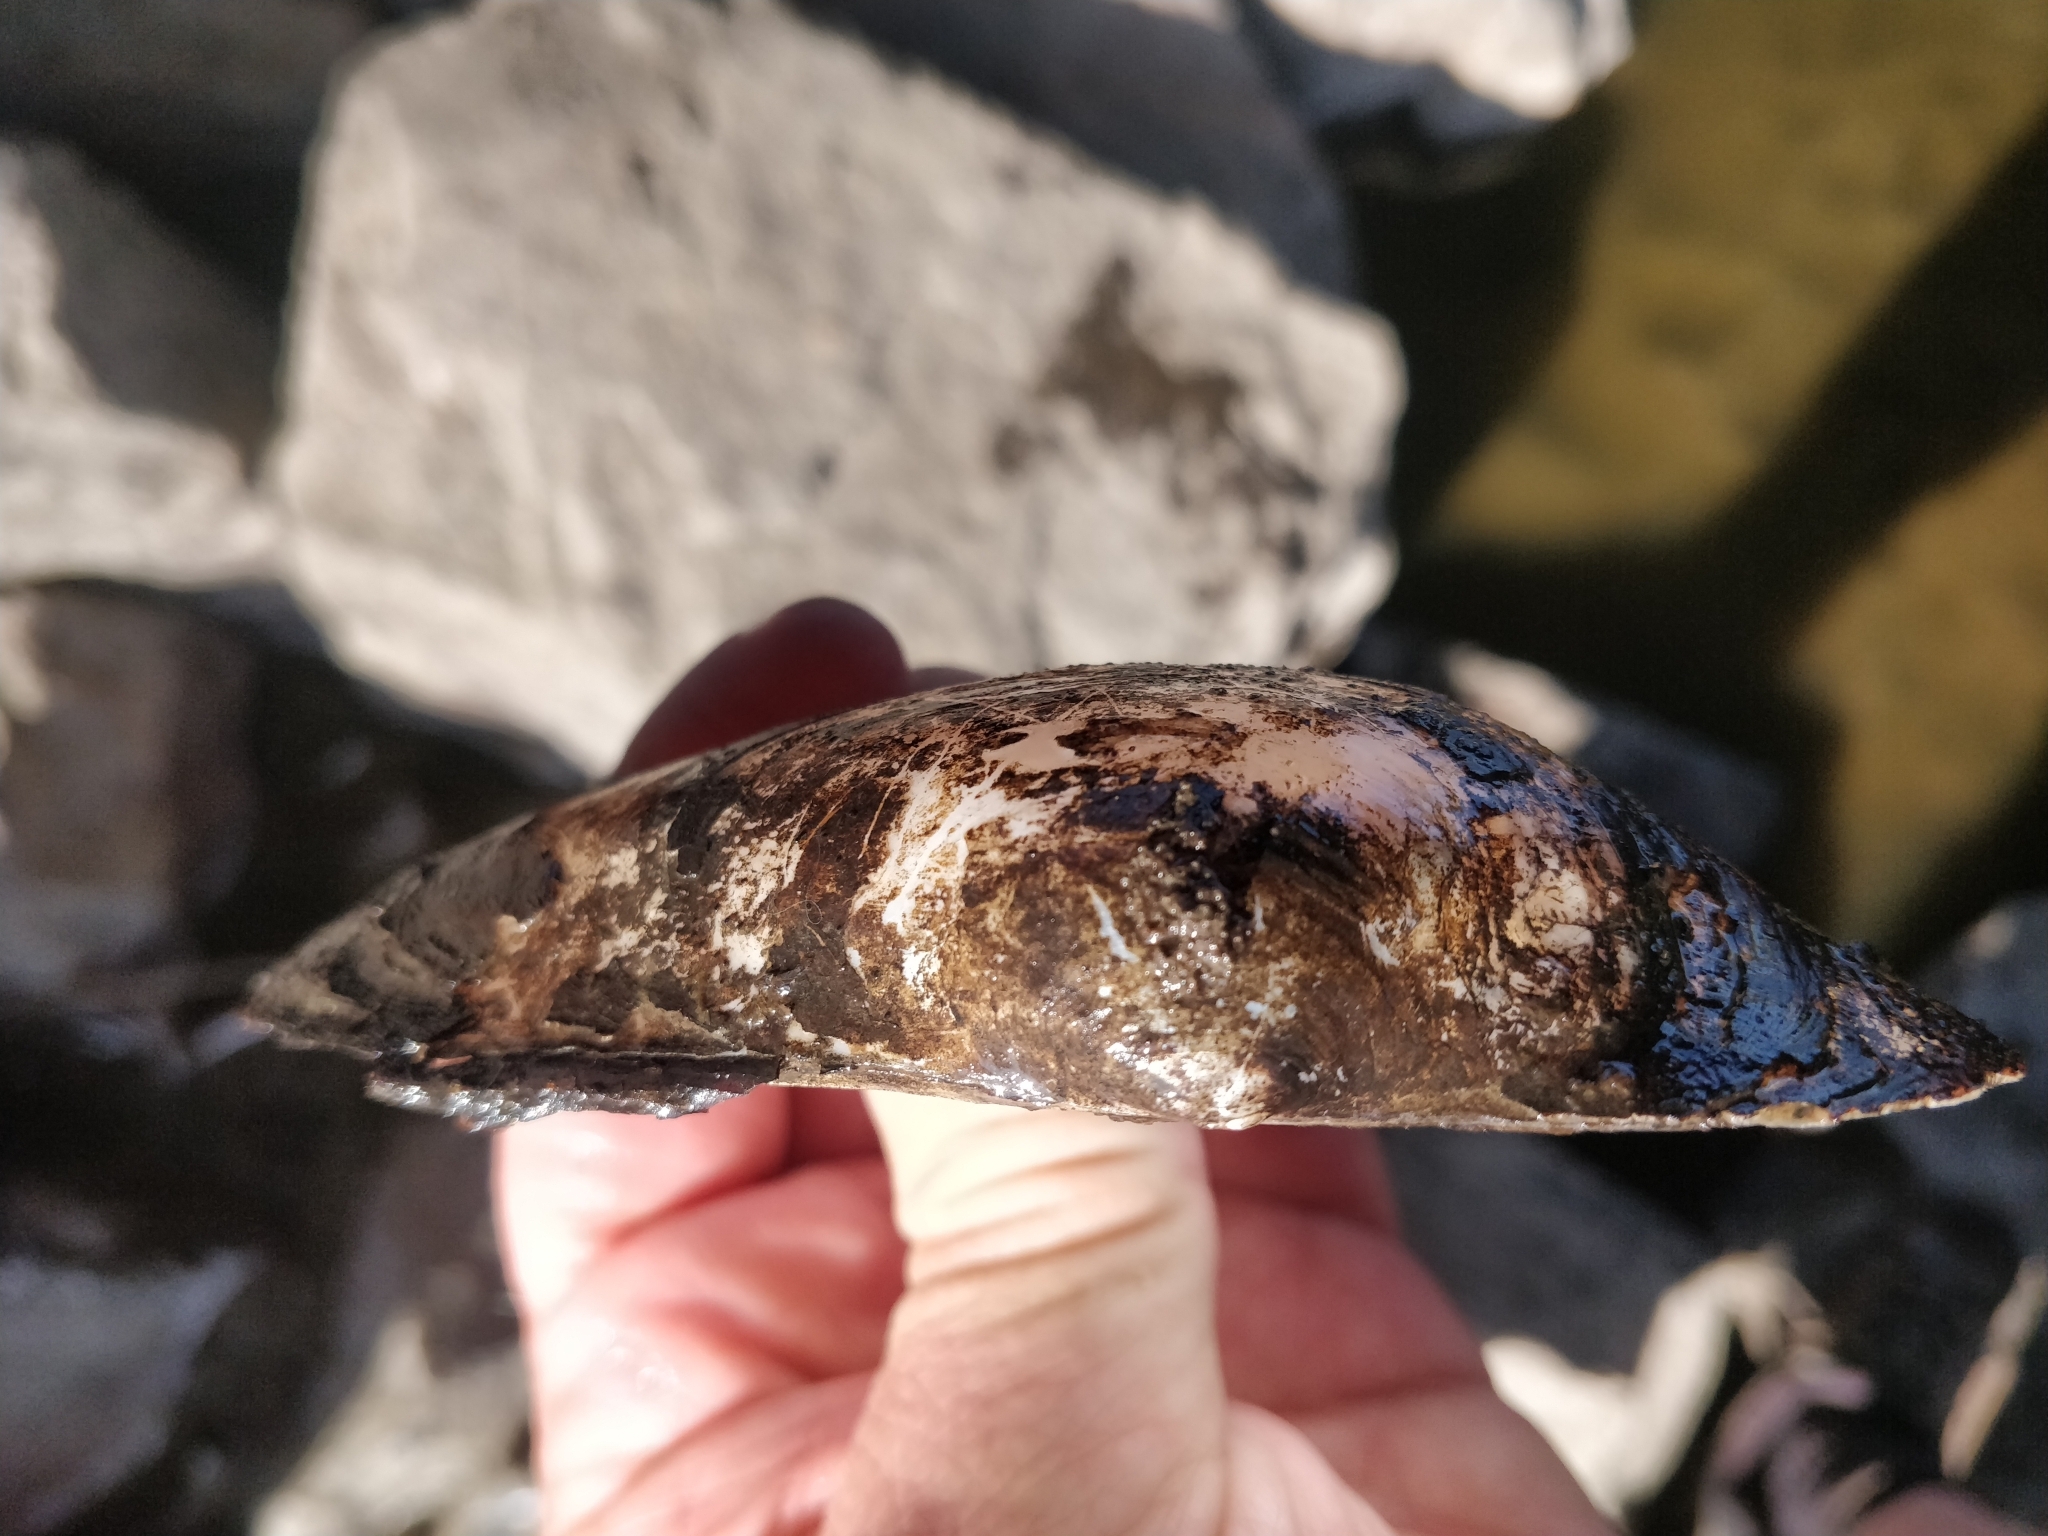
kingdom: Animalia
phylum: Mollusca
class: Bivalvia
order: Unionida
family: Unionidae
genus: Pyganodon
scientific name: Pyganodon grandis
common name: Giant floater
